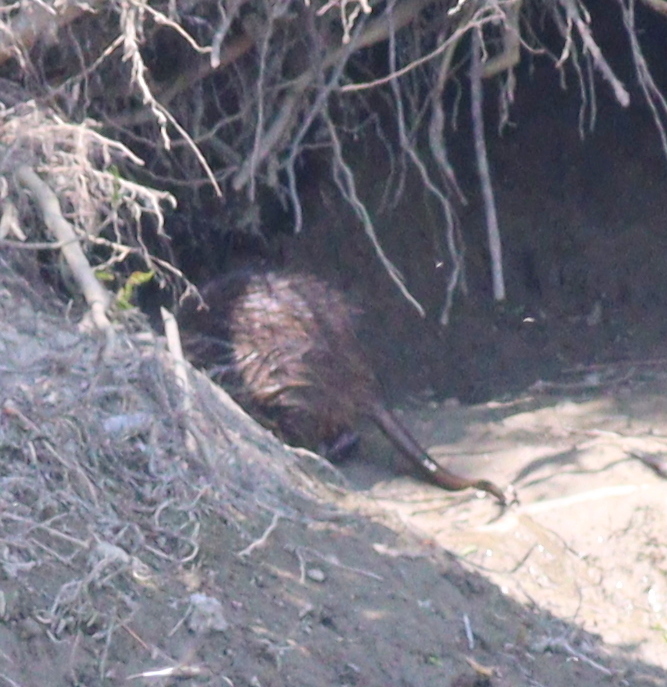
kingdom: Animalia
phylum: Chordata
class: Mammalia
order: Rodentia
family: Myocastoridae
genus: Myocastor
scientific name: Myocastor coypus
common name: Coypu
